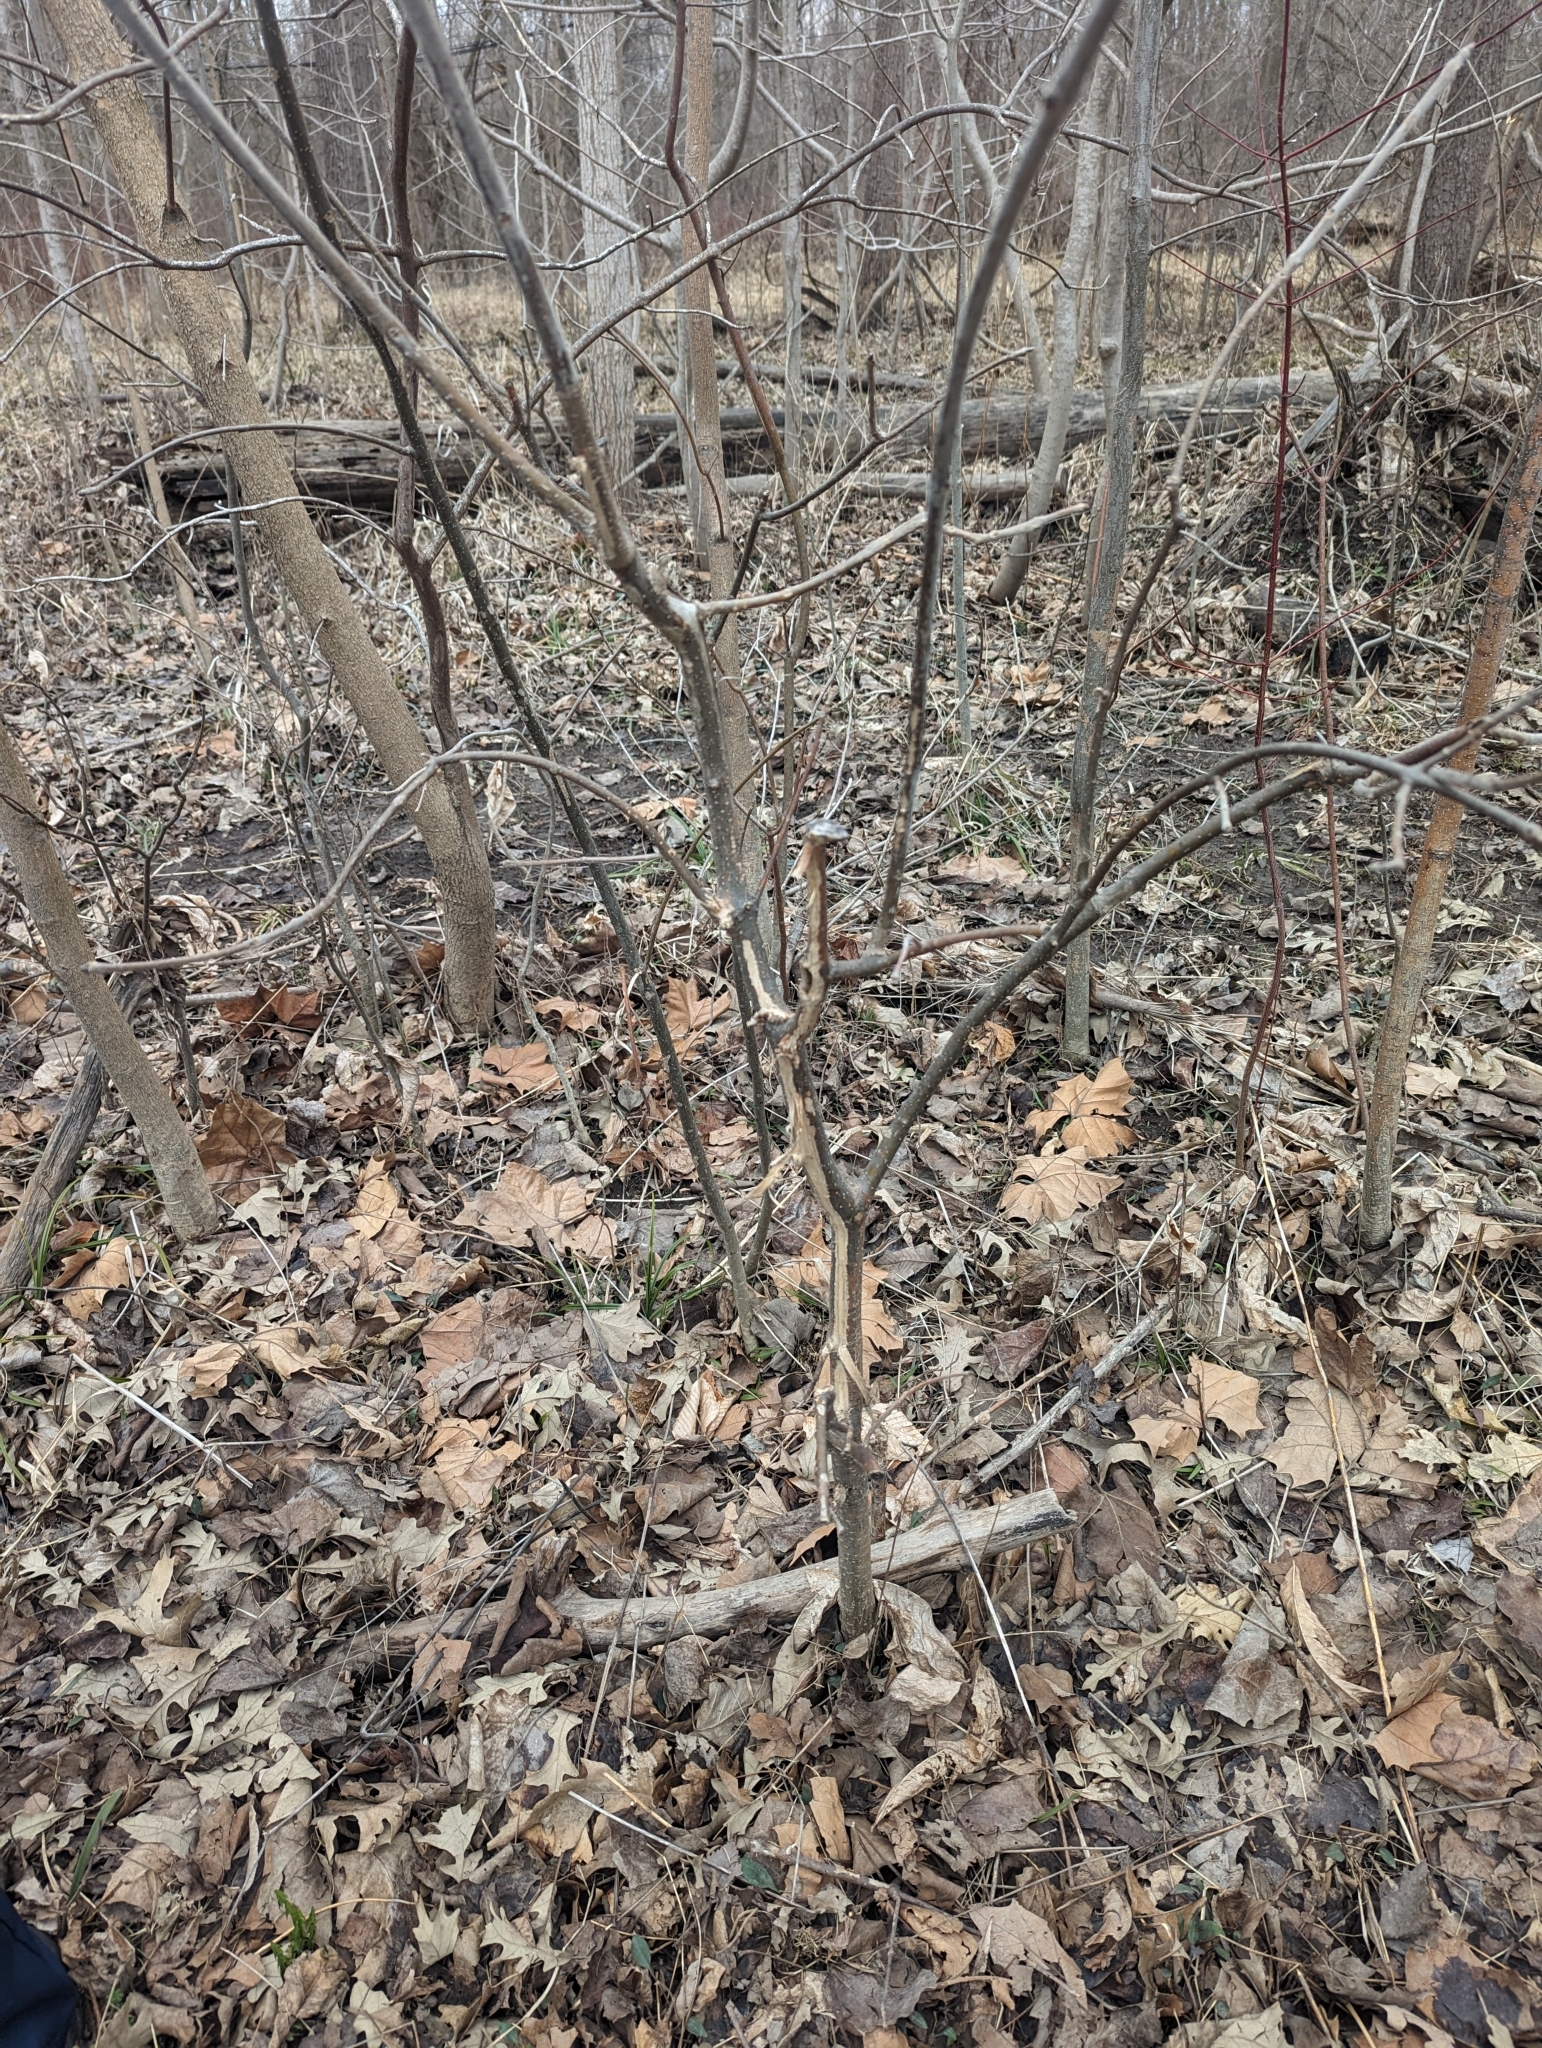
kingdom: Plantae
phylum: Tracheophyta
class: Magnoliopsida
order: Lamiales
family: Oleaceae
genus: Fraxinus
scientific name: Fraxinus americana
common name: White ash
